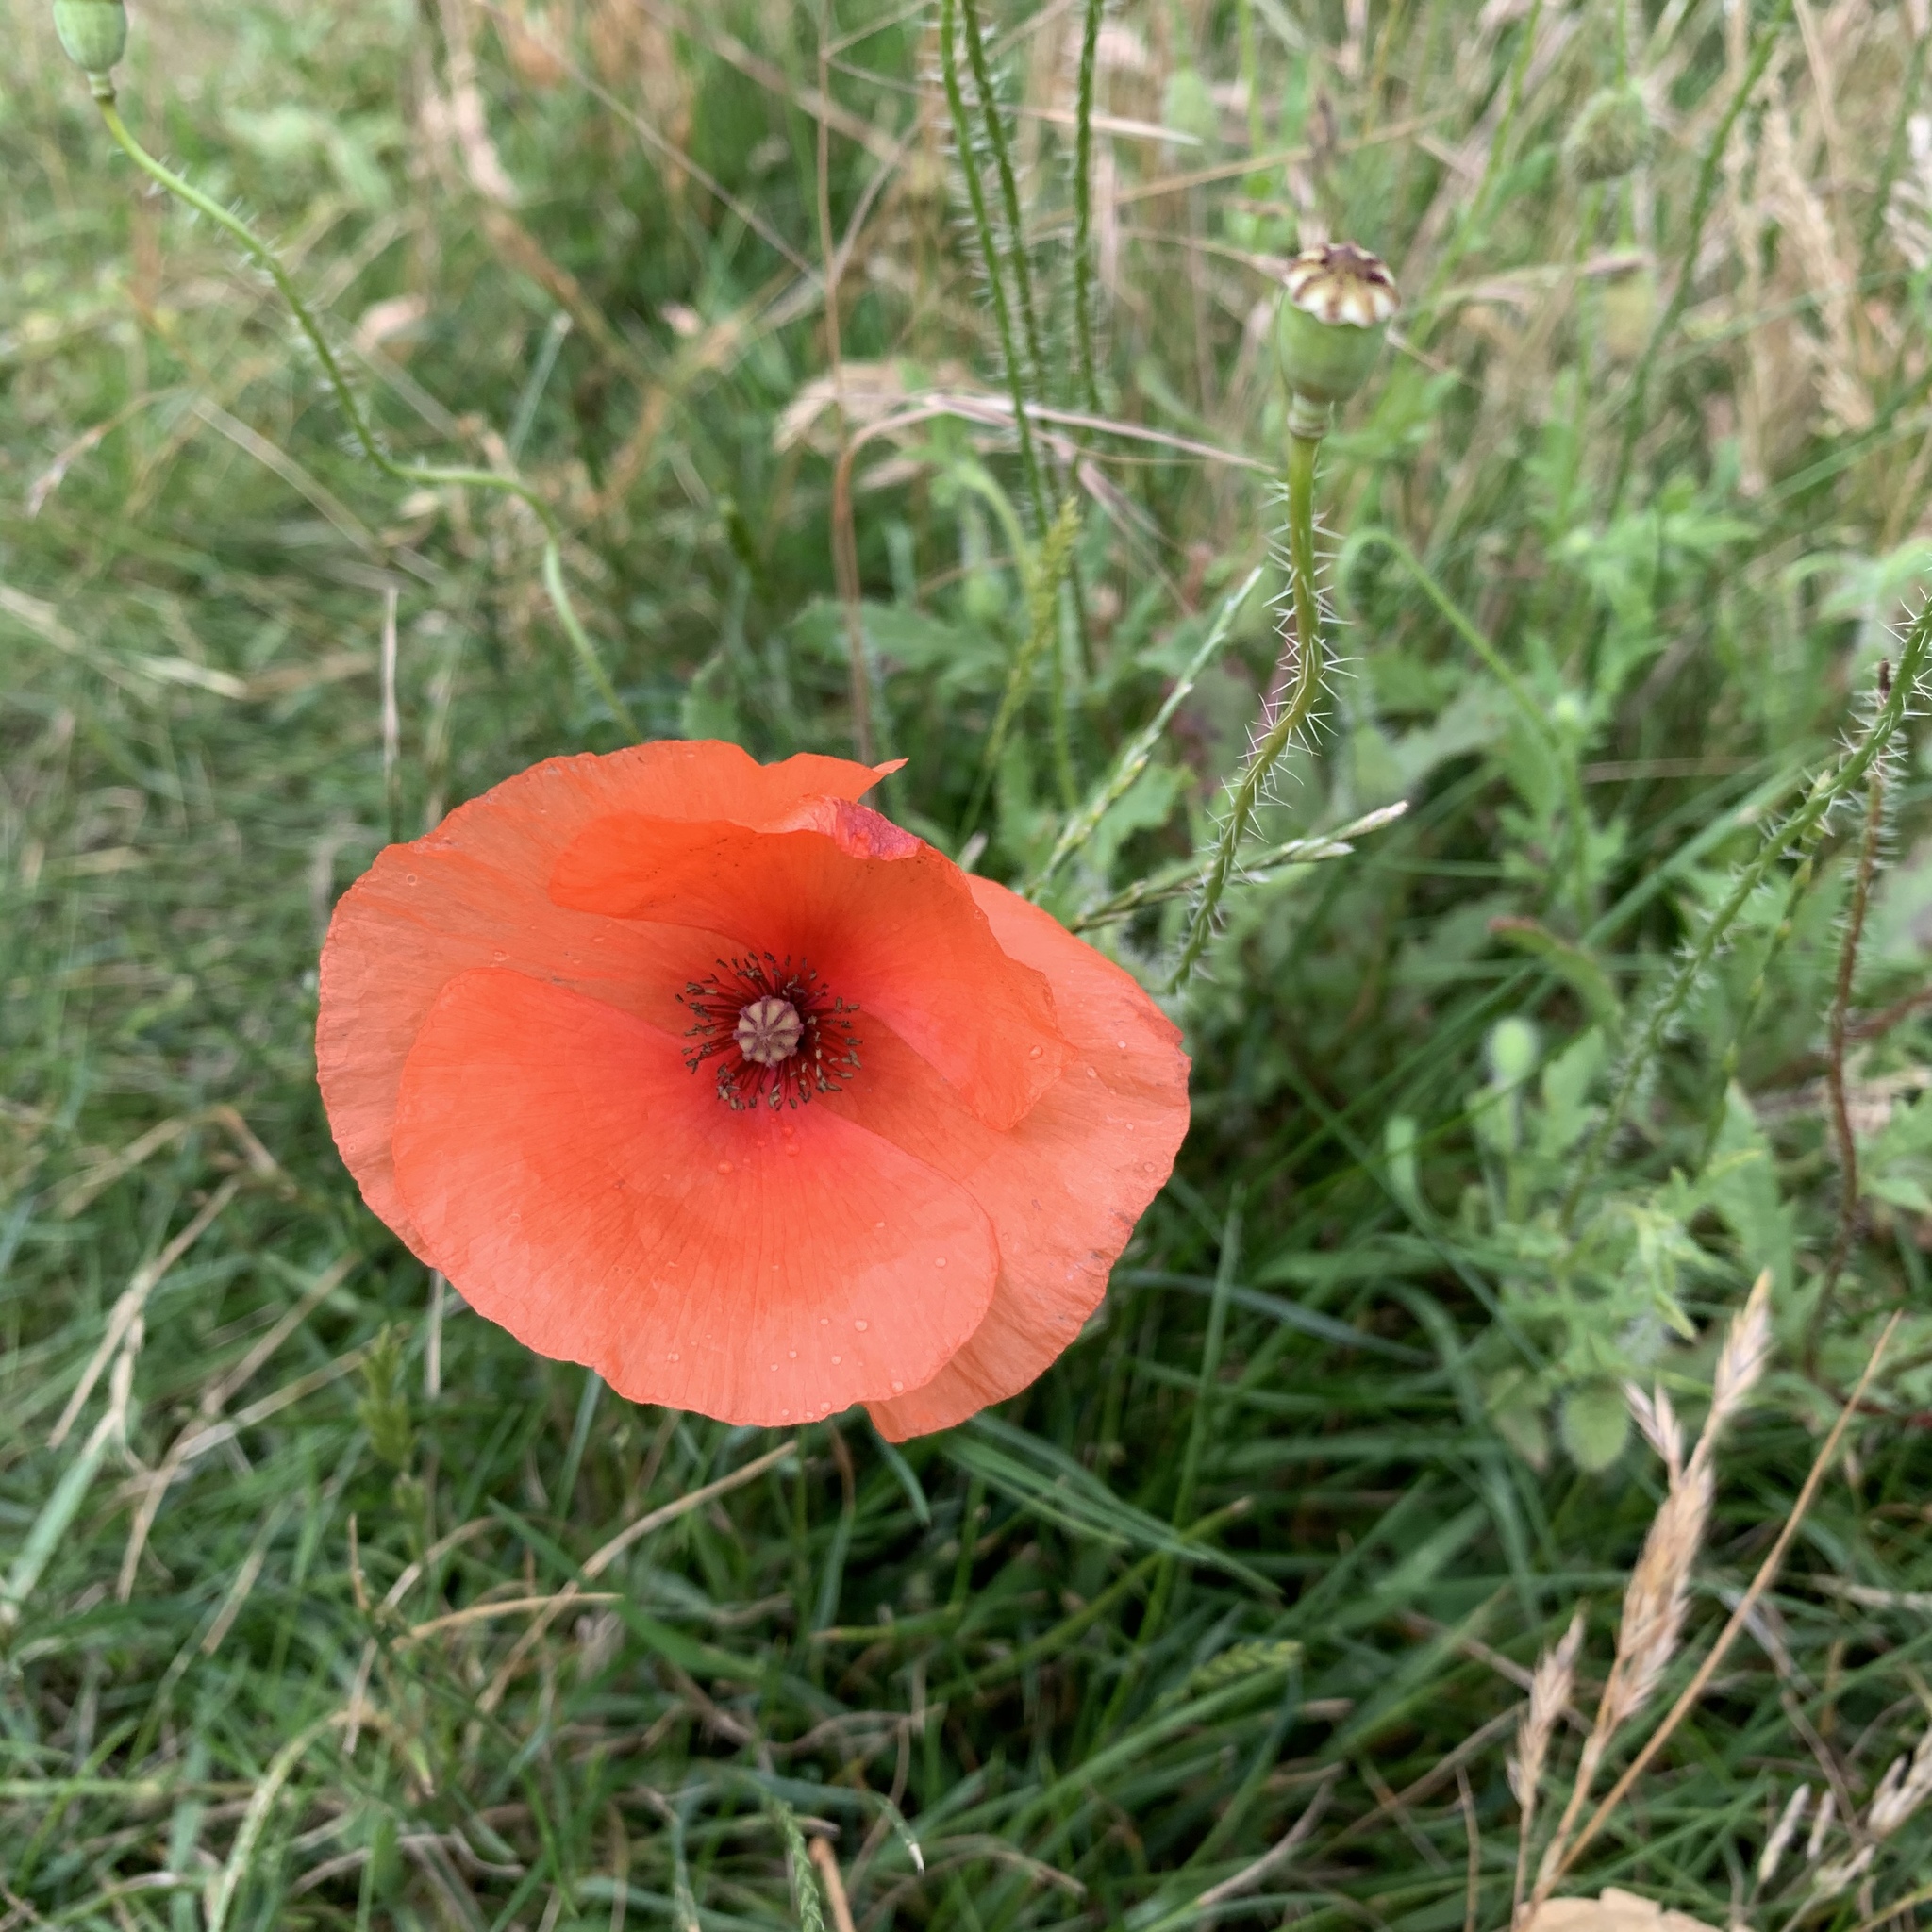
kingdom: Plantae
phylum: Tracheophyta
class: Magnoliopsida
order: Ranunculales
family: Papaveraceae
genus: Papaver
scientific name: Papaver rhoeas
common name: Corn poppy
